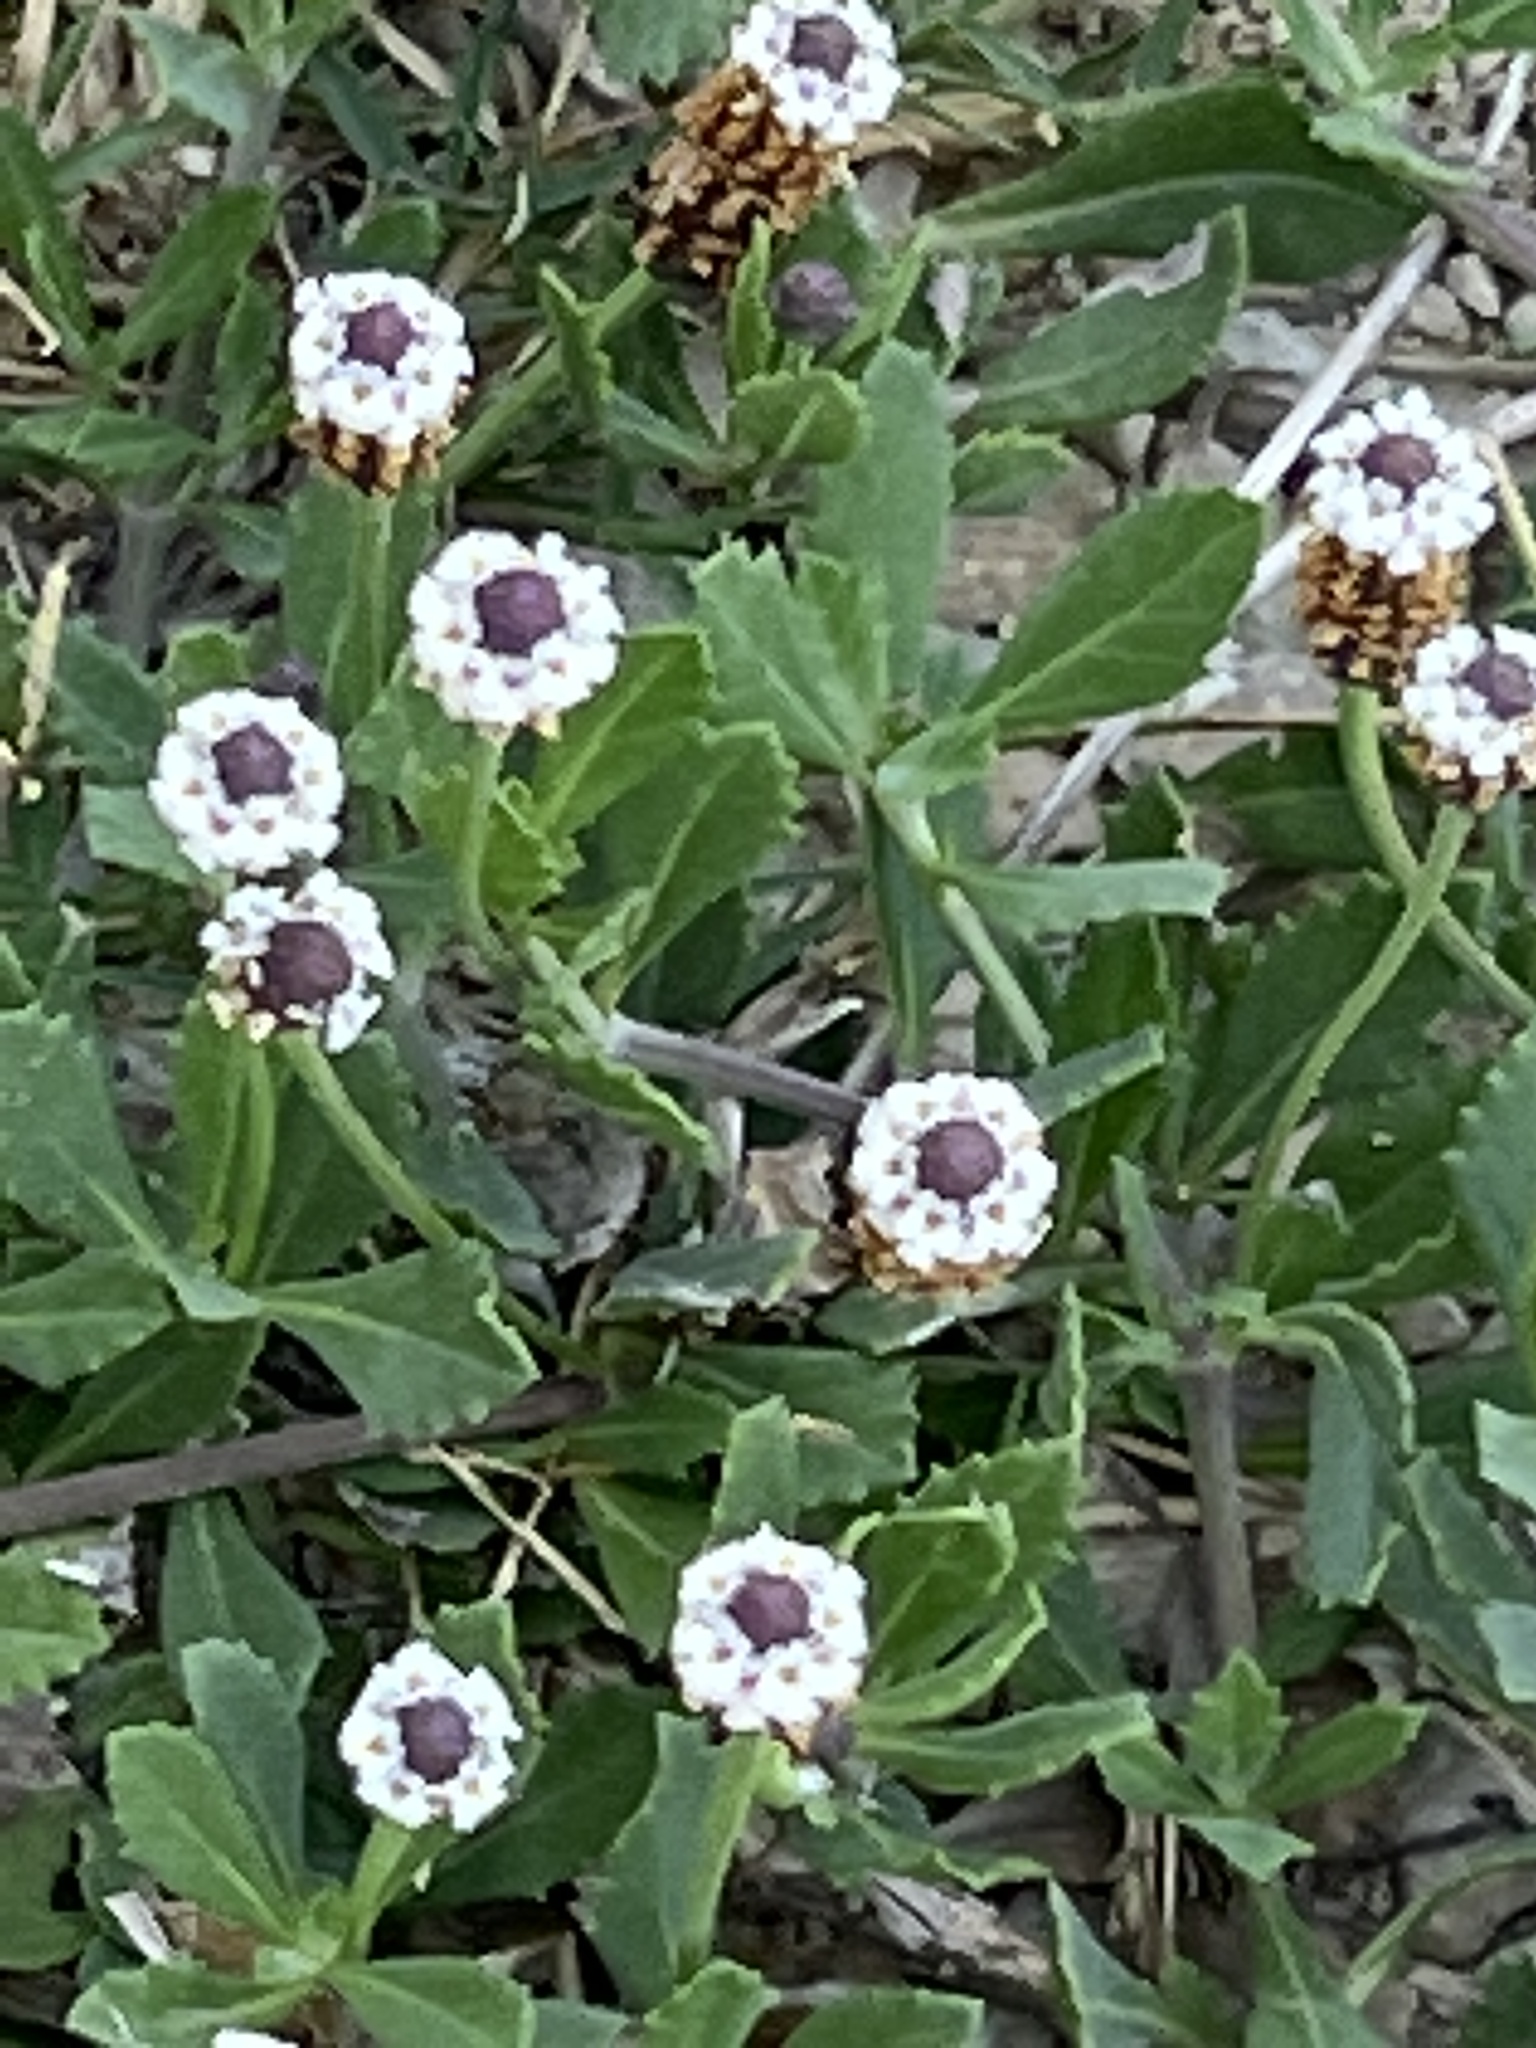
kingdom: Plantae
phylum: Tracheophyta
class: Magnoliopsida
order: Lamiales
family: Verbenaceae
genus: Phyla
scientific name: Phyla nodiflora
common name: Frogfruit
